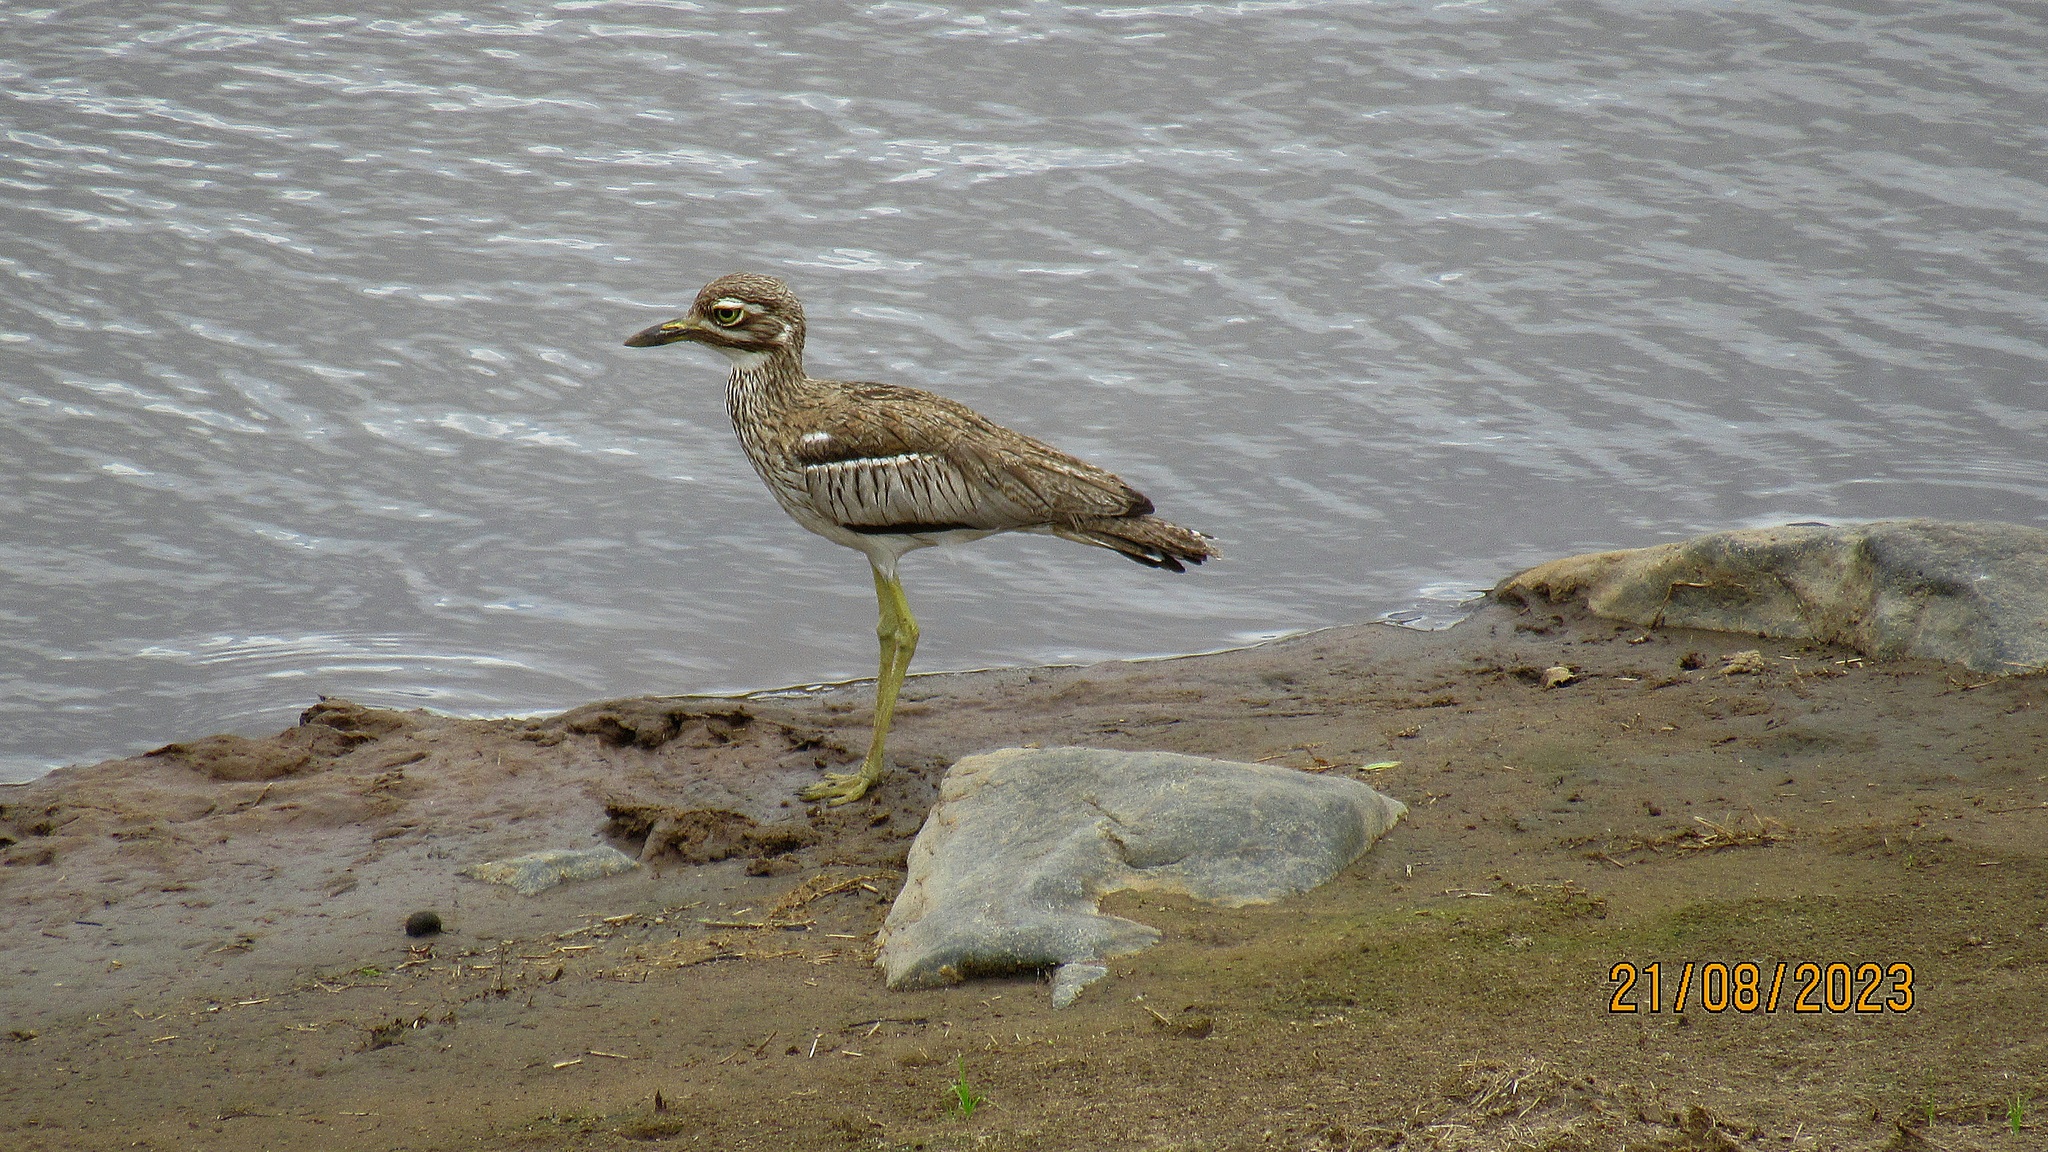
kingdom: Animalia
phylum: Chordata
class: Aves
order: Charadriiformes
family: Burhinidae
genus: Burhinus
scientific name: Burhinus vermiculatus
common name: Water thick-knee
